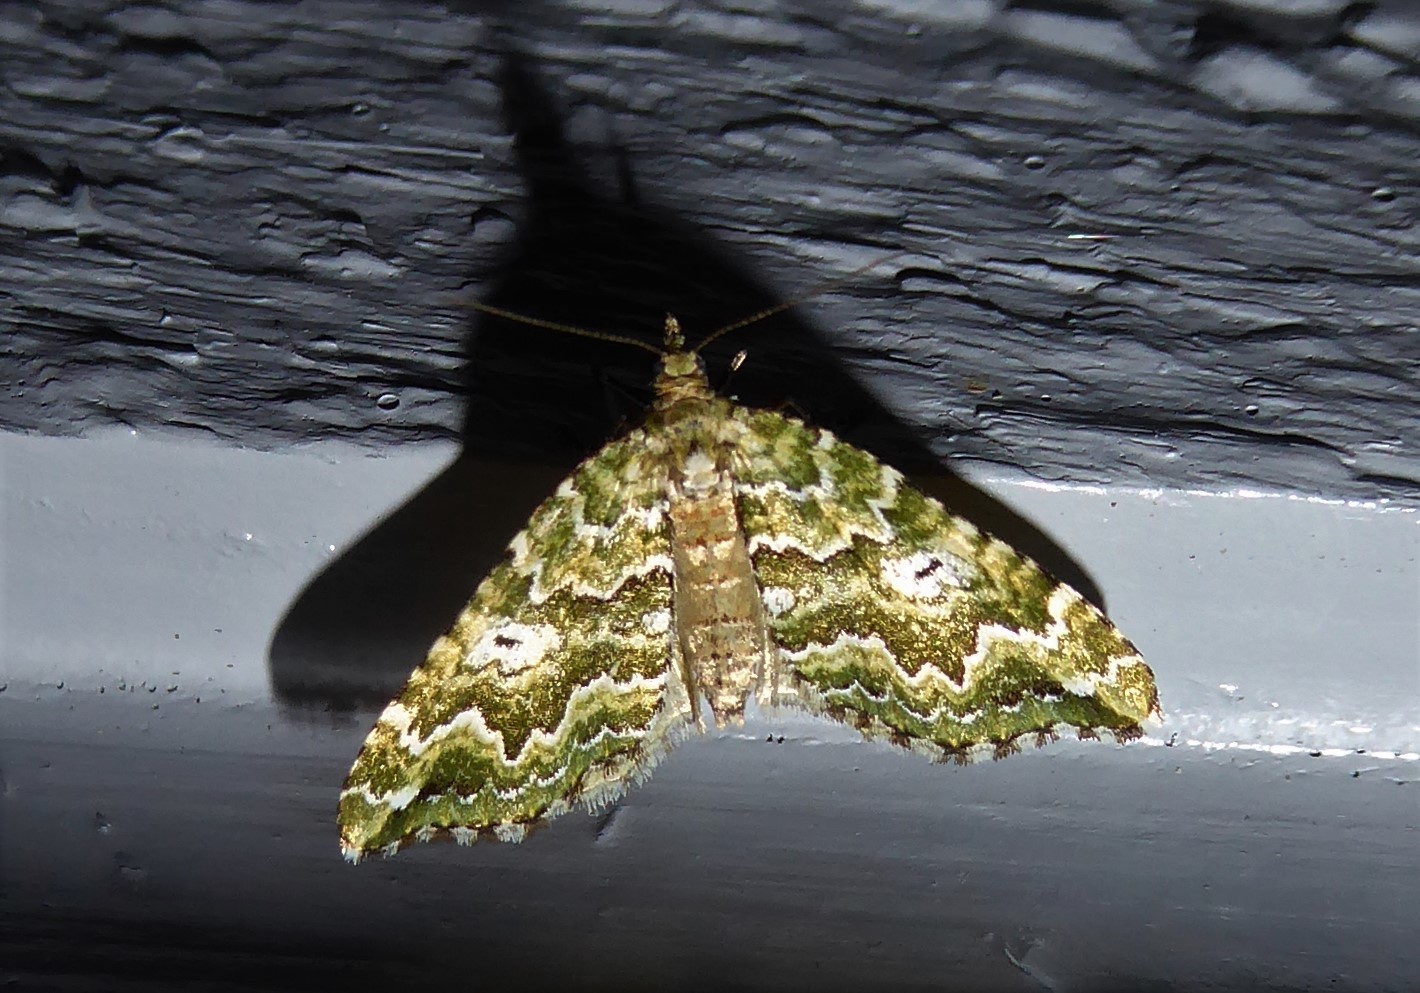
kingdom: Animalia
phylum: Arthropoda
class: Insecta
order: Lepidoptera
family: Geometridae
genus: Asaphodes
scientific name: Asaphodes beata
